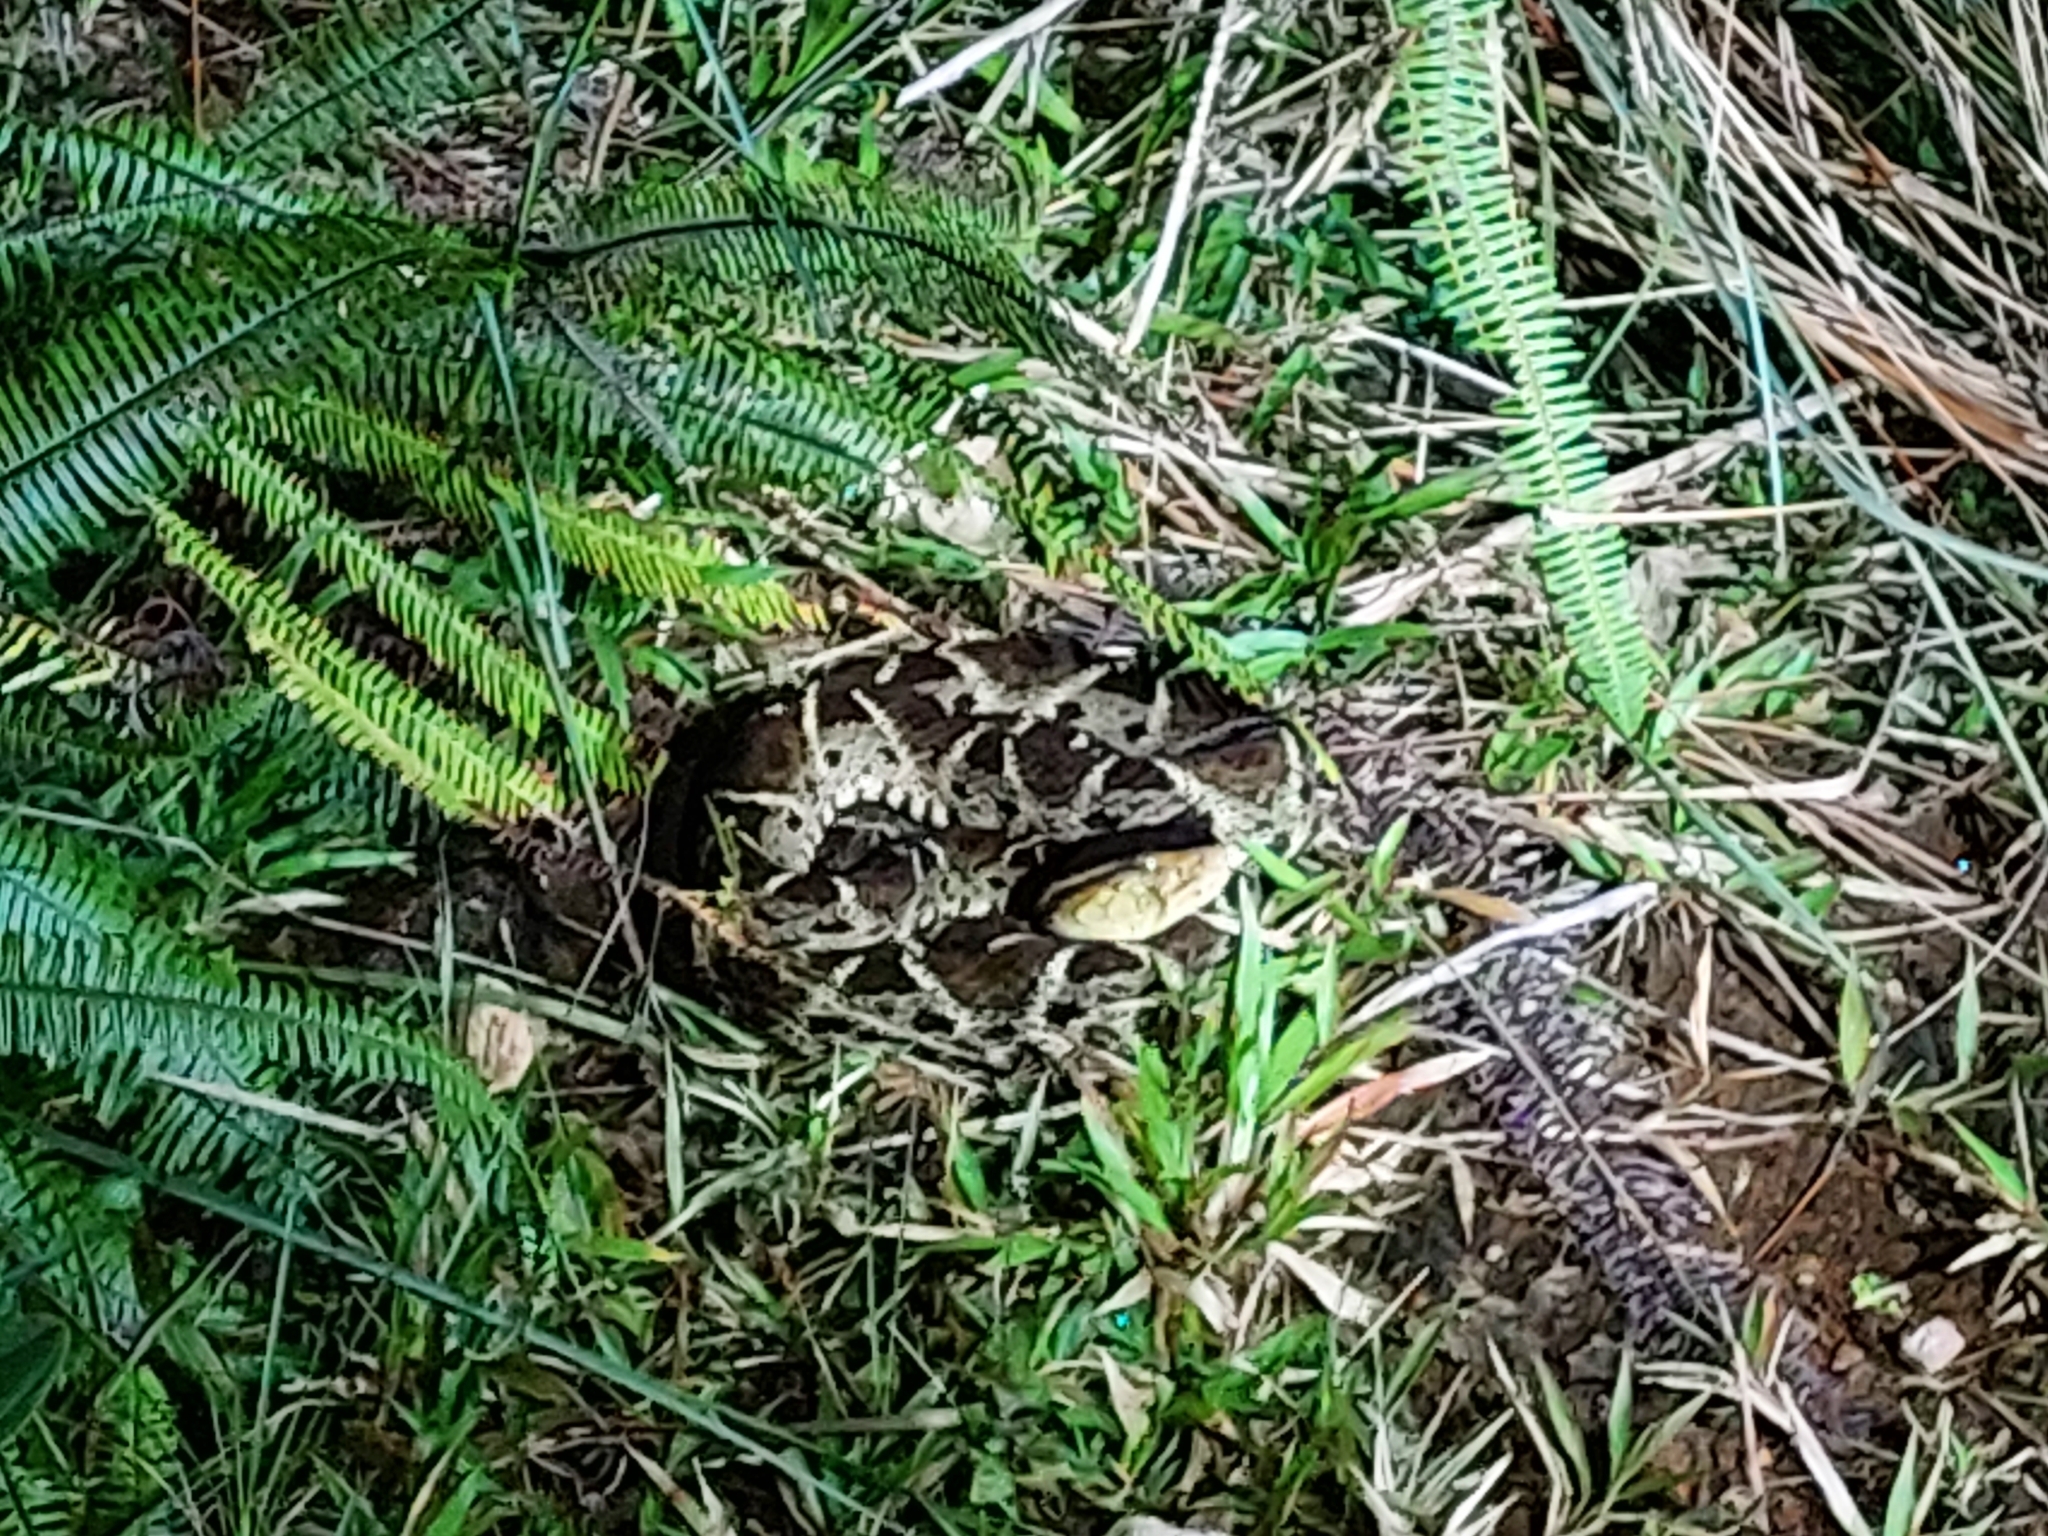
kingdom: Animalia
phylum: Chordata
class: Squamata
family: Viperidae
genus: Bothrops
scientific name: Bothrops asper
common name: Terciopelo
